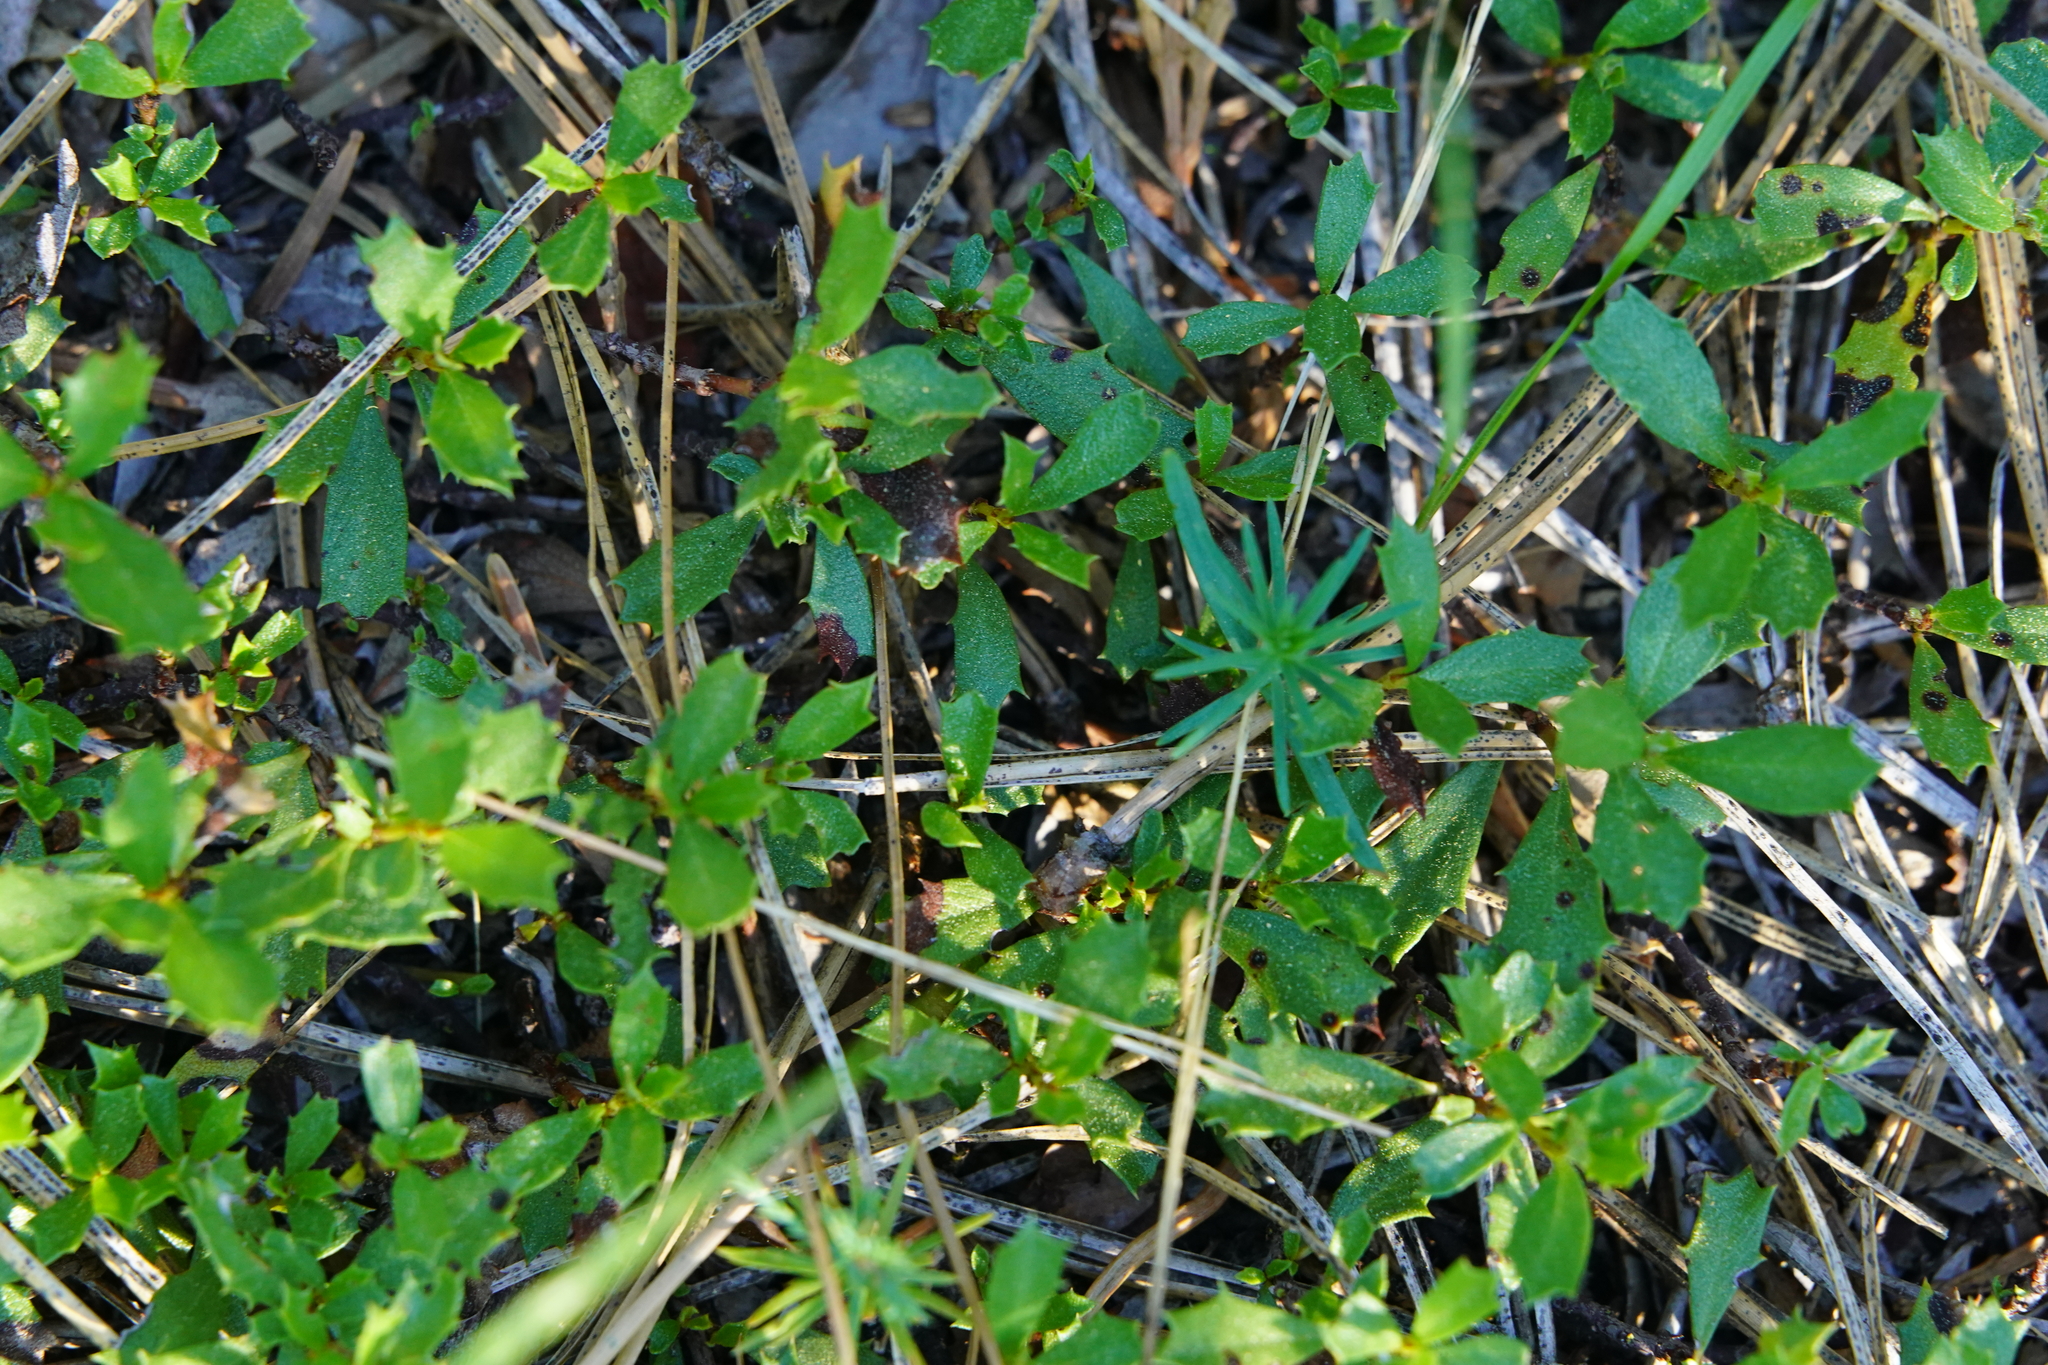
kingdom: Plantae
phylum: Tracheophyta
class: Magnoliopsida
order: Rosales
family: Rhamnaceae
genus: Ceanothus
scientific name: Ceanothus prostratus
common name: Mahala-mat
